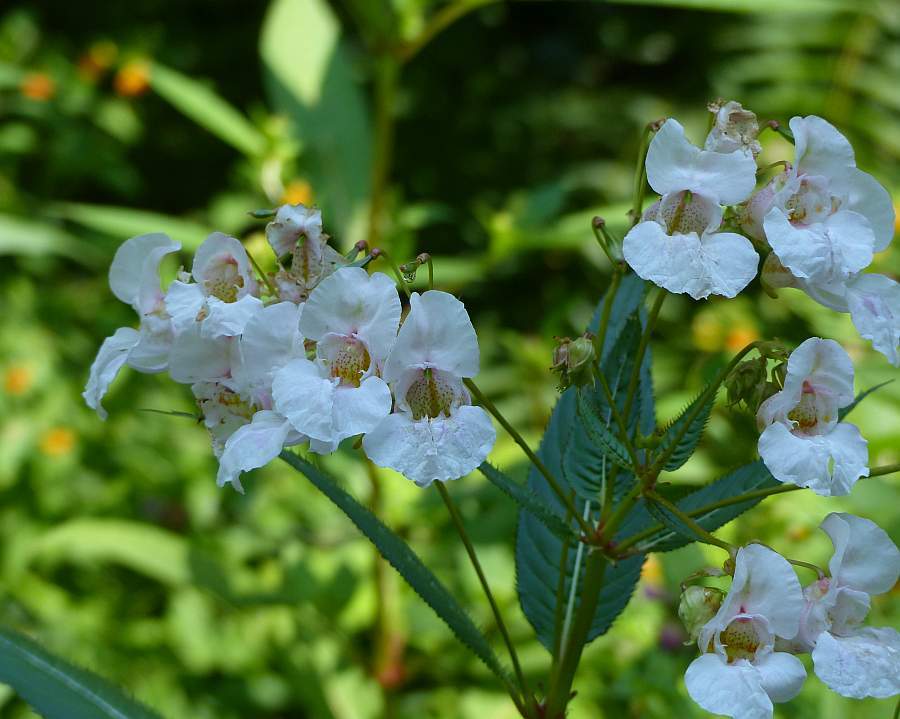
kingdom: Plantae
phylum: Tracheophyta
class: Magnoliopsida
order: Ericales
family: Balsaminaceae
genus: Impatiens
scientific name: Impatiens glandulifera
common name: Himalayan balsam
